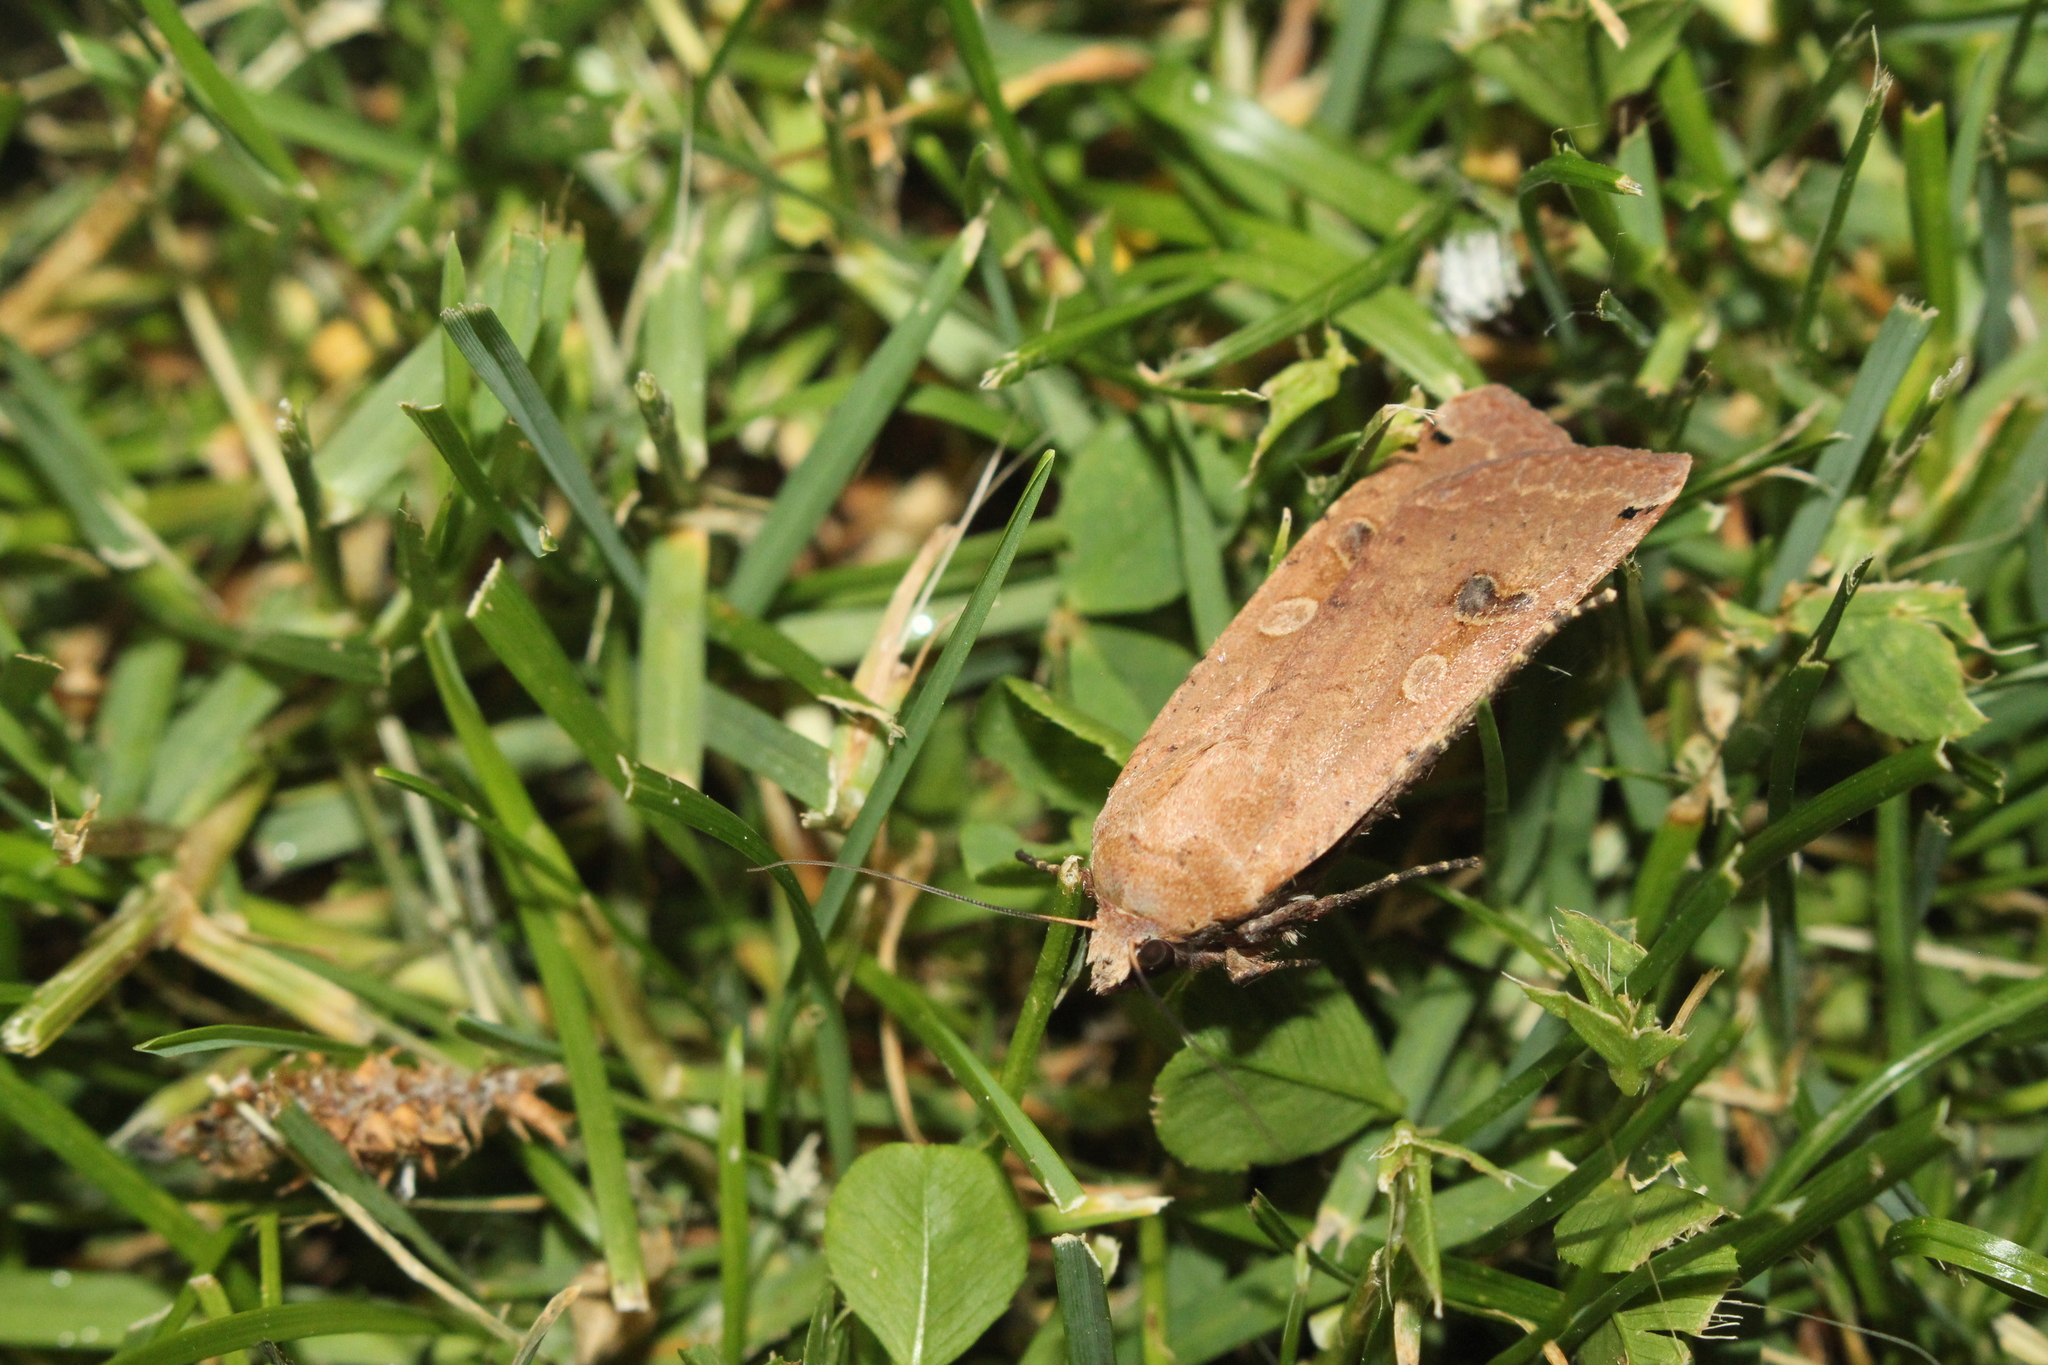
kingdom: Animalia
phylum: Arthropoda
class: Insecta
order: Lepidoptera
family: Noctuidae
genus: Noctua
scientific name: Noctua pronuba
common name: Large yellow underwing
